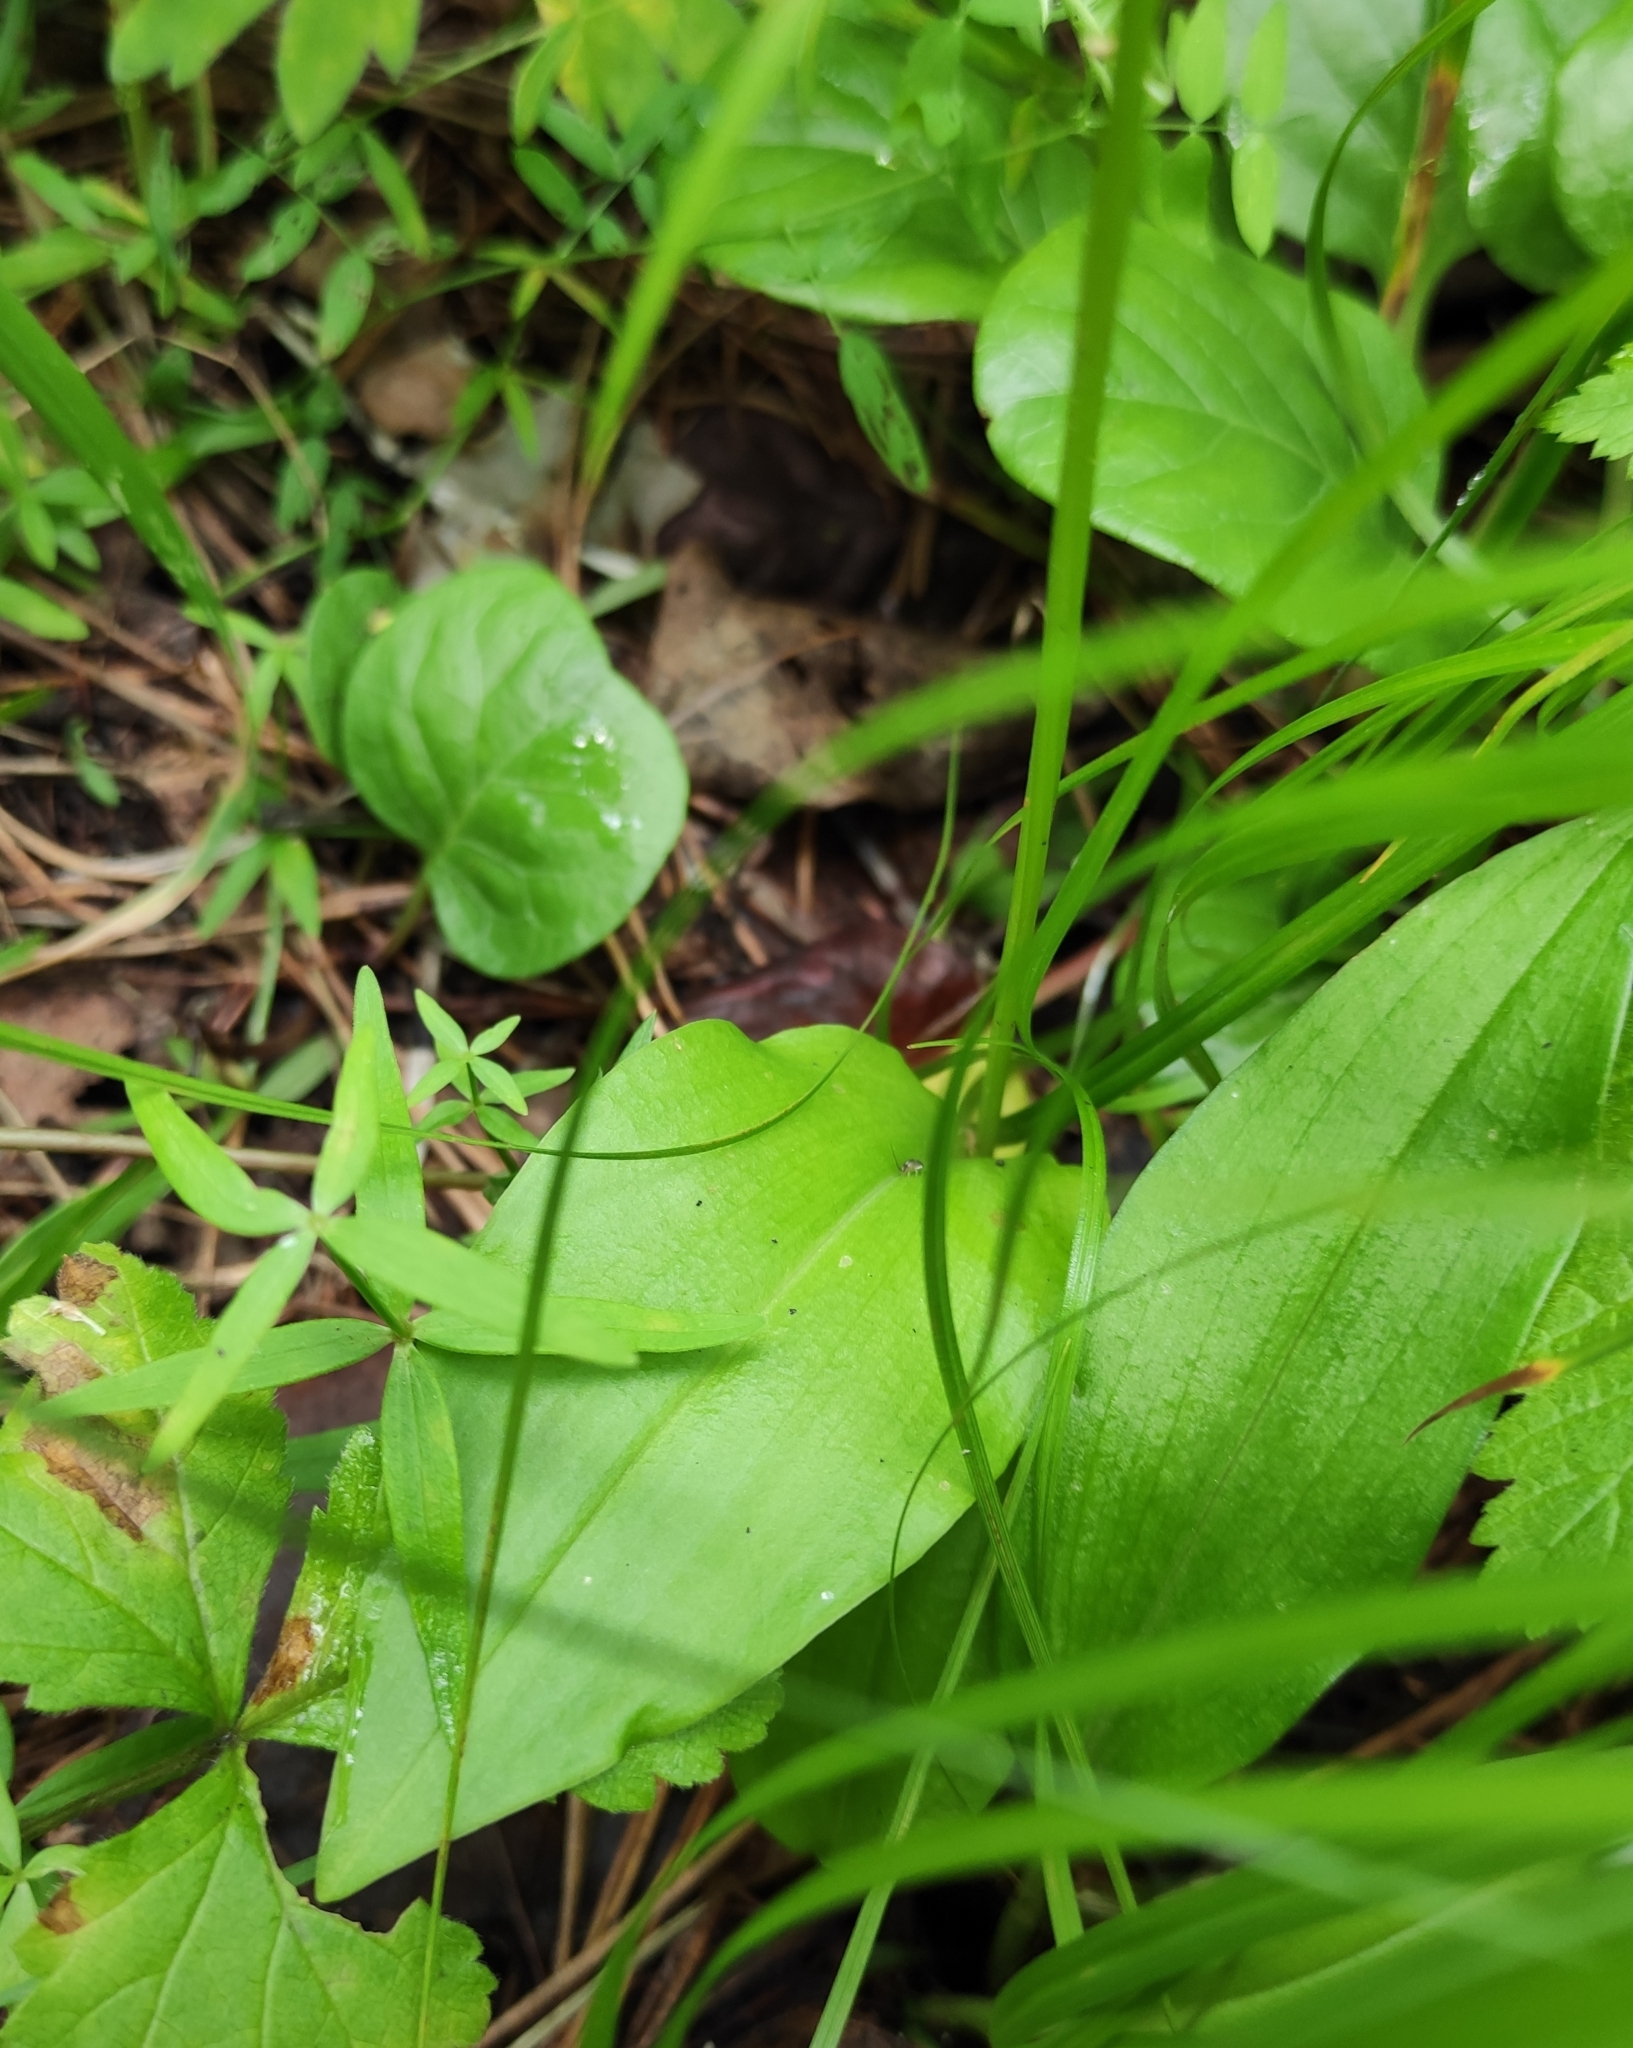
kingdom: Plantae
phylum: Tracheophyta
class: Liliopsida
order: Asparagales
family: Orchidaceae
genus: Malaxis
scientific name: Malaxis monophyllos
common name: White adder's-mouth
